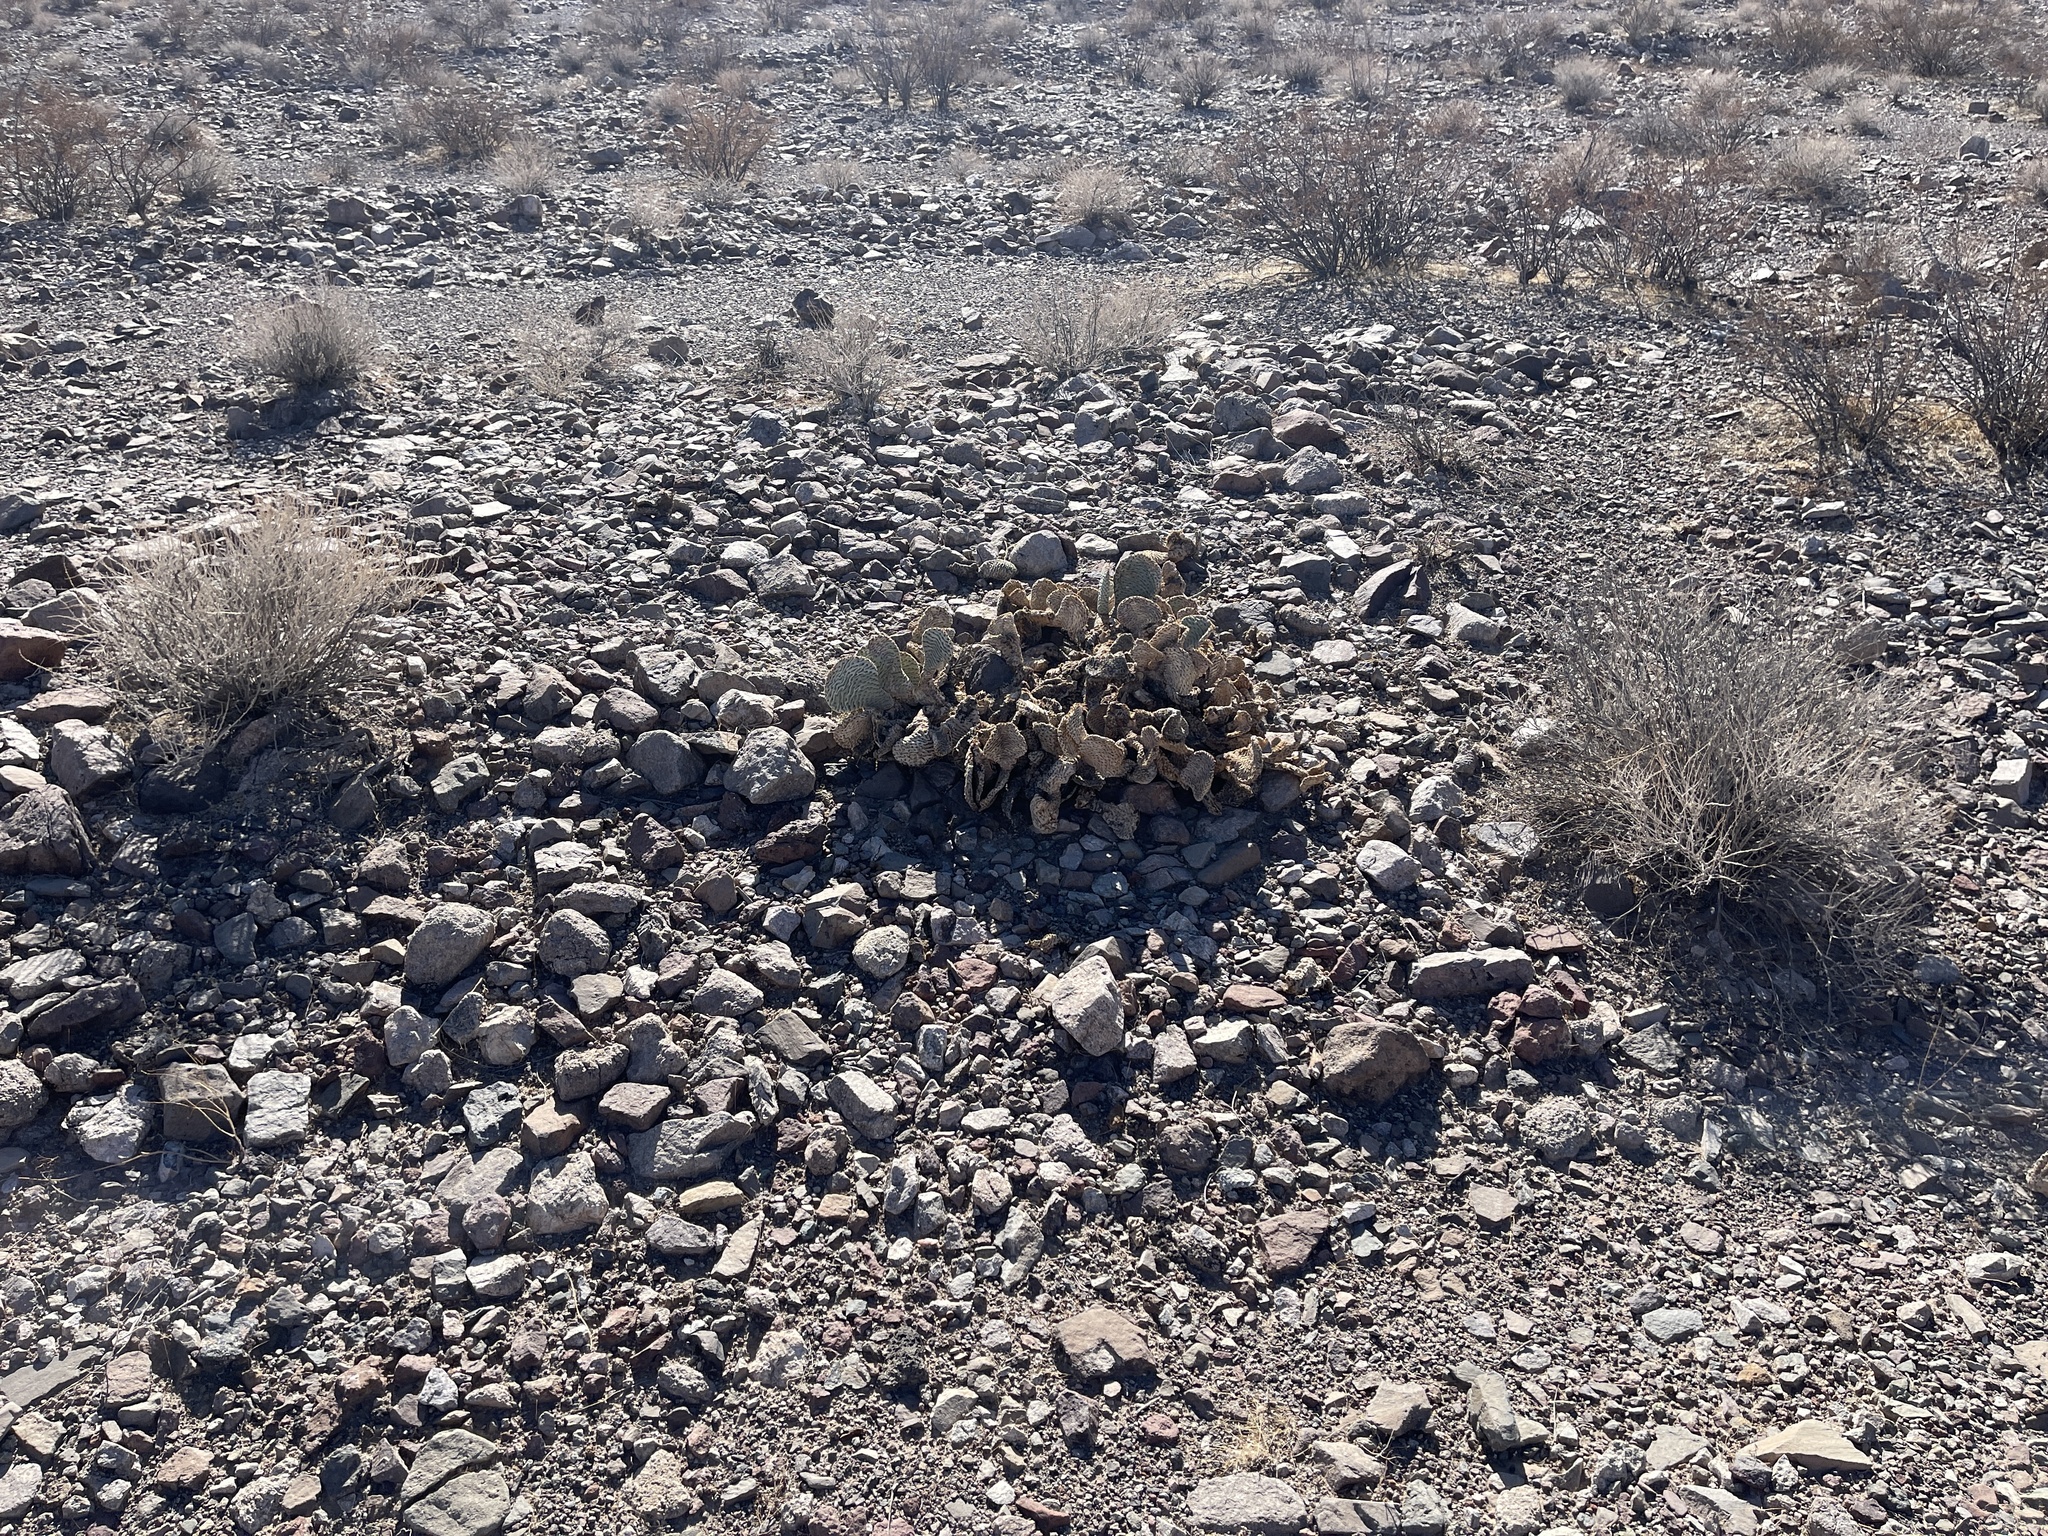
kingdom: Plantae
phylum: Tracheophyta
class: Magnoliopsida
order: Caryophyllales
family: Cactaceae
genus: Opuntia
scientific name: Opuntia basilaris
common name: Beavertail prickly-pear
